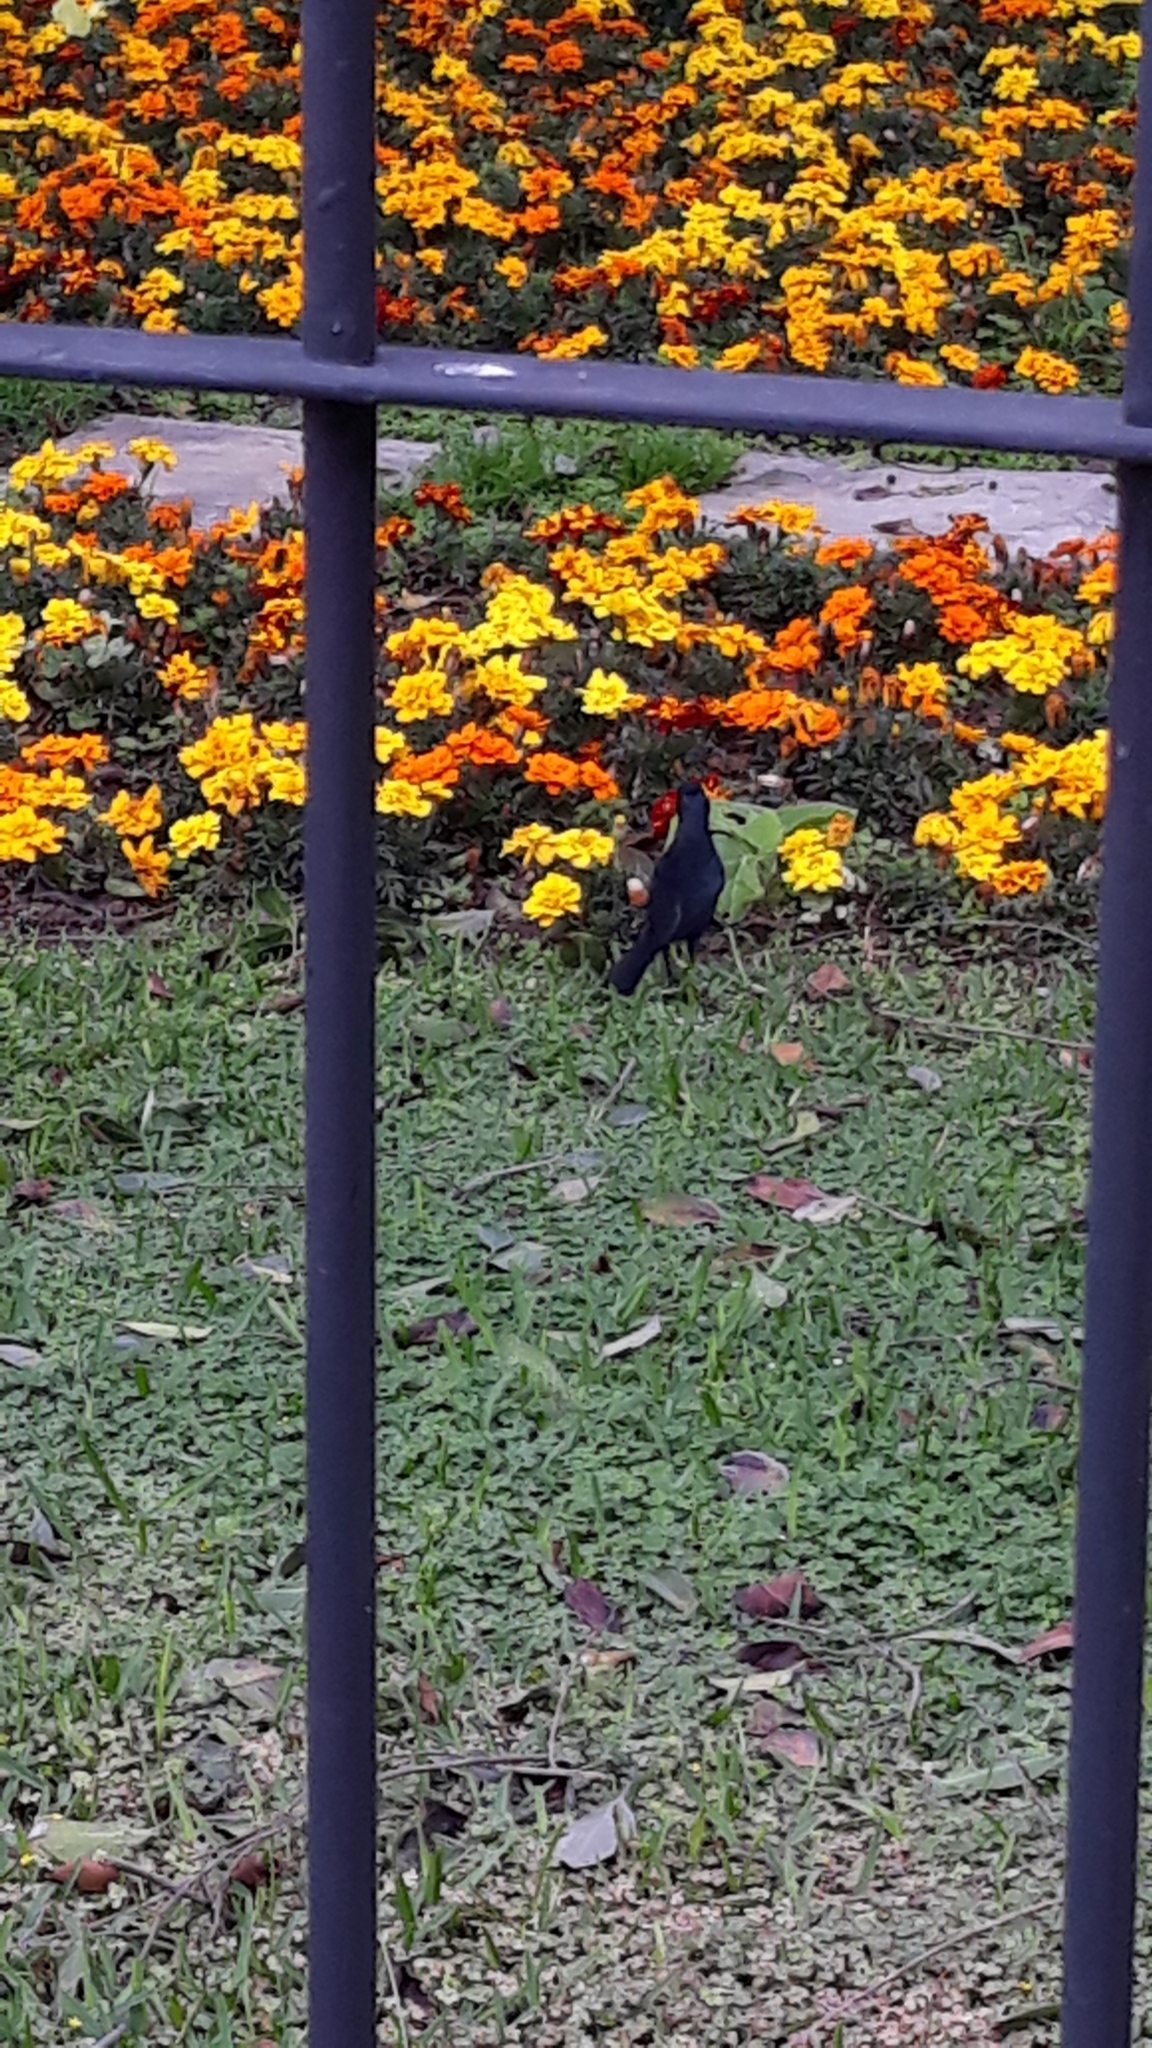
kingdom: Animalia
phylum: Chordata
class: Aves
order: Passeriformes
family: Icteridae
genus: Dives
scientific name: Dives warczewiczi
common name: Scrub blackbird
